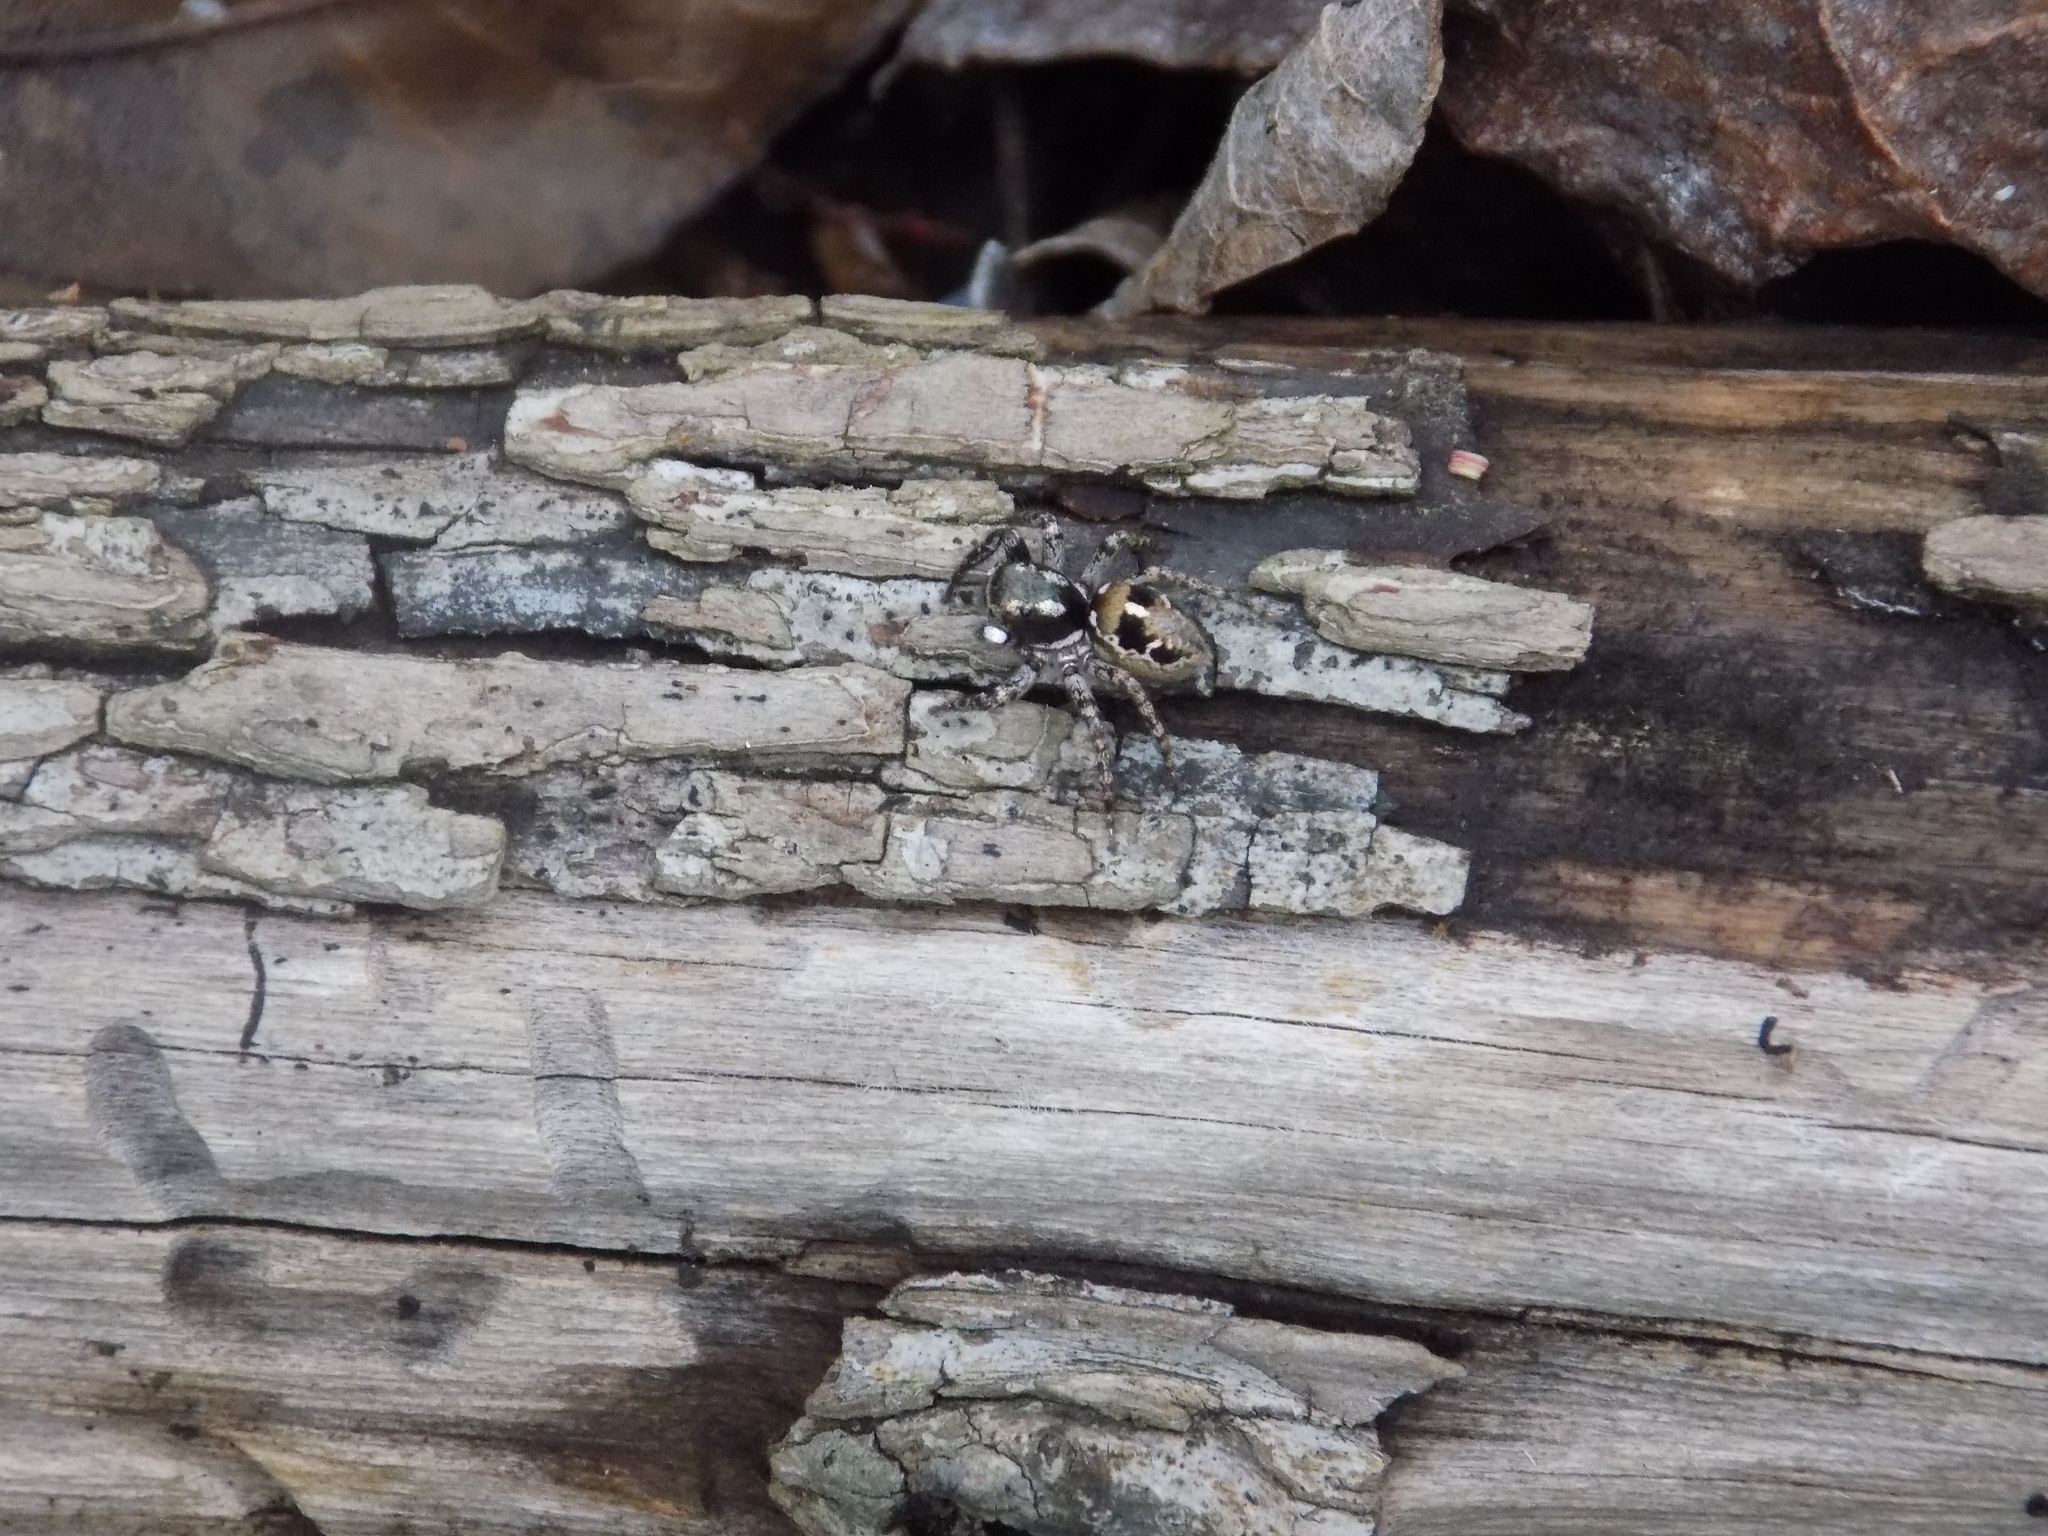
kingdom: Animalia
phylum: Arthropoda
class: Arachnida
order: Araneae
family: Salticidae
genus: Anasaitis
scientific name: Anasaitis canosa
